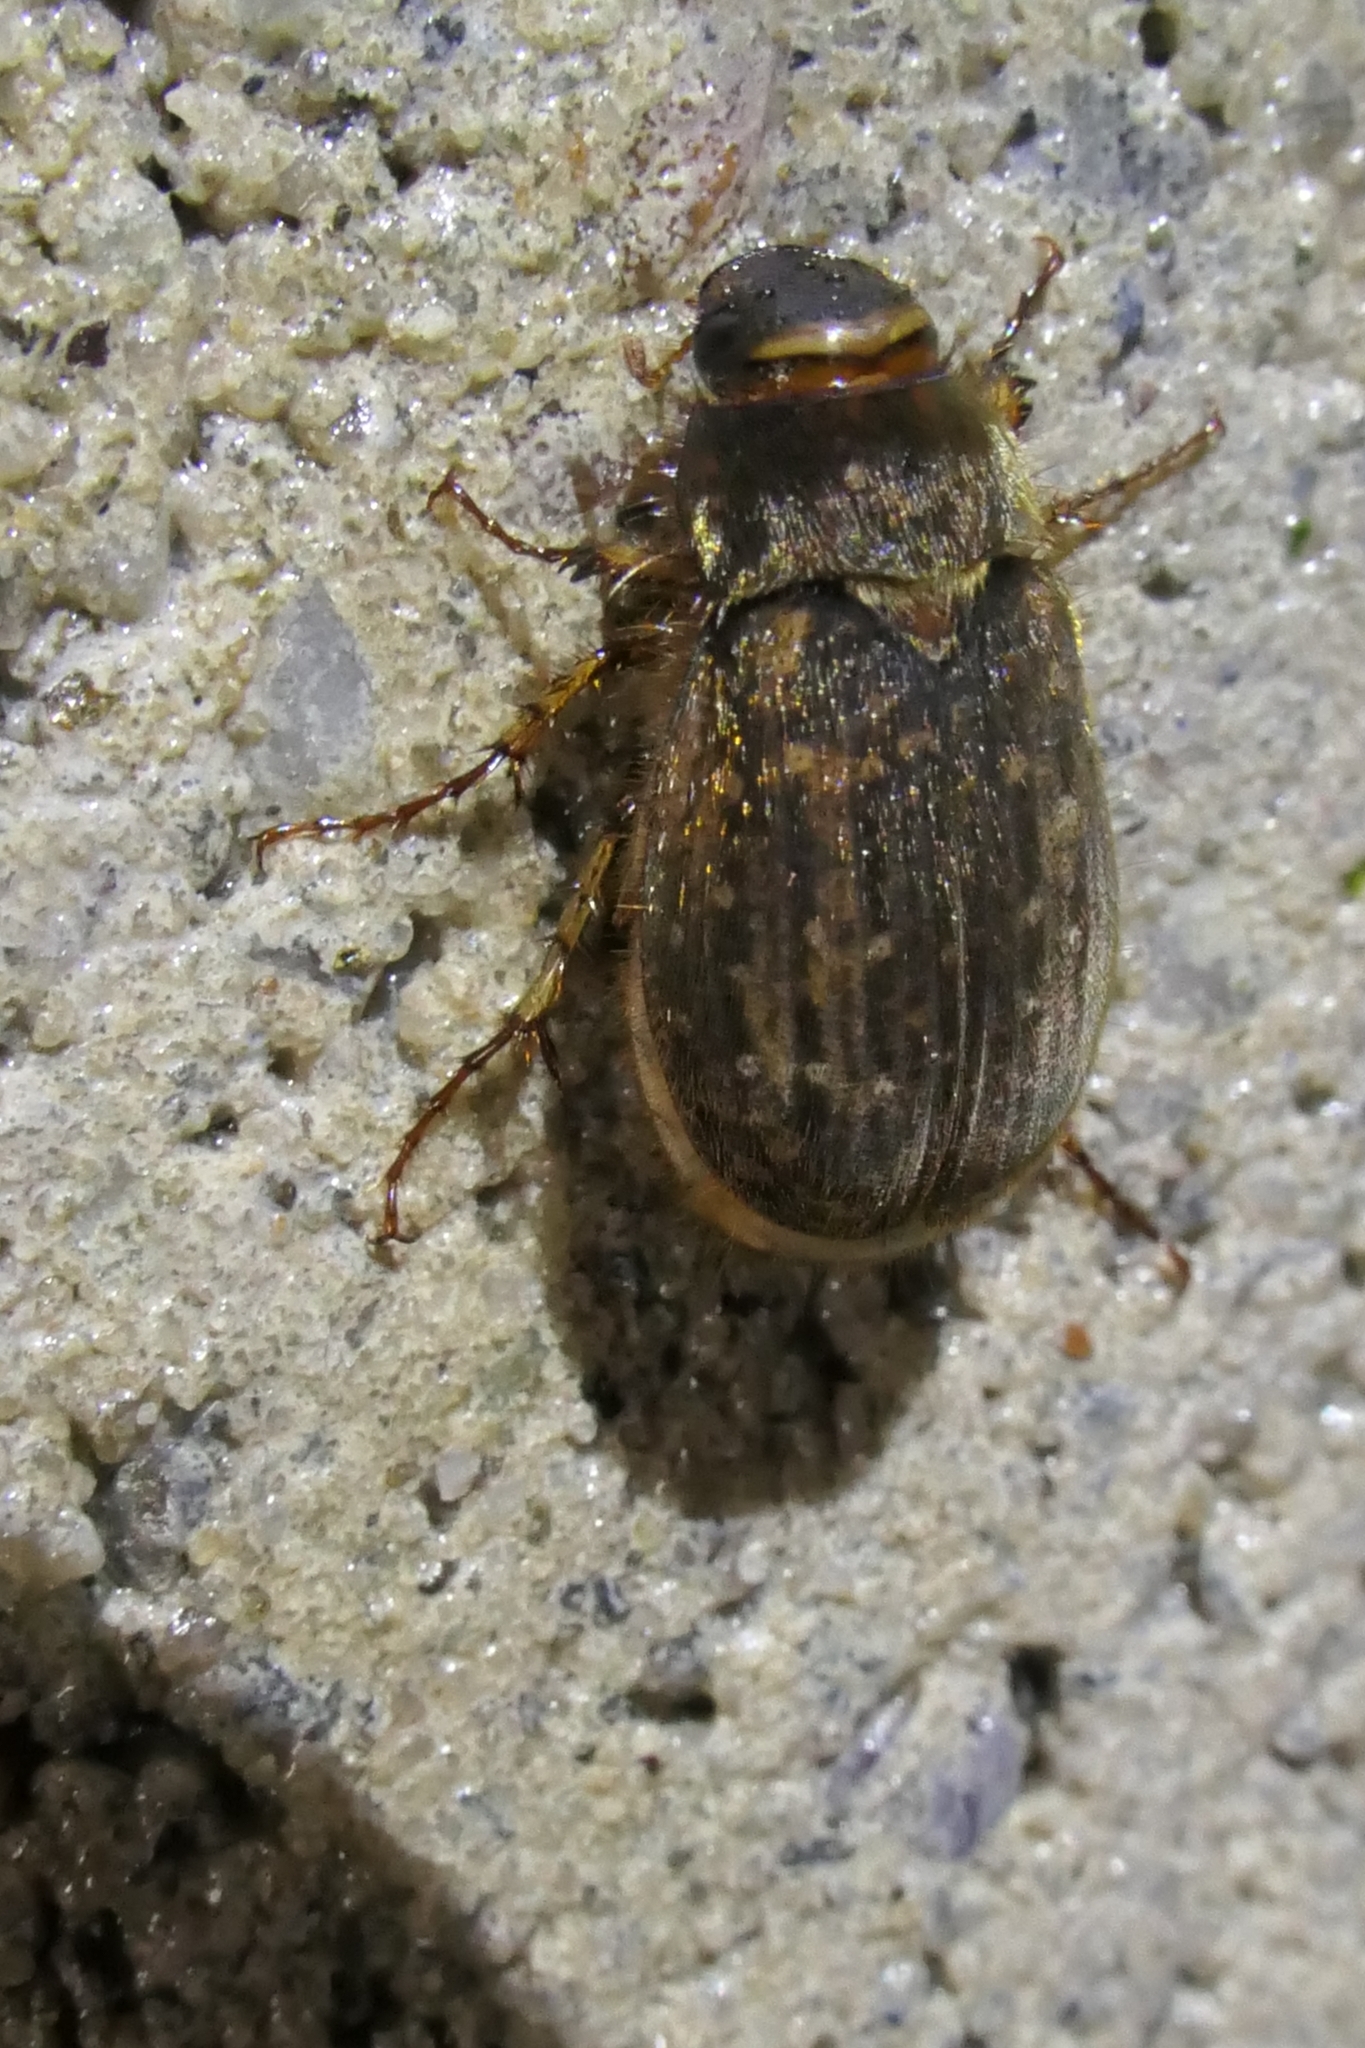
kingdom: Animalia
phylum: Arthropoda
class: Insecta
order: Coleoptera
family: Scarabaeidae
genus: Odontria
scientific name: Odontria striata
